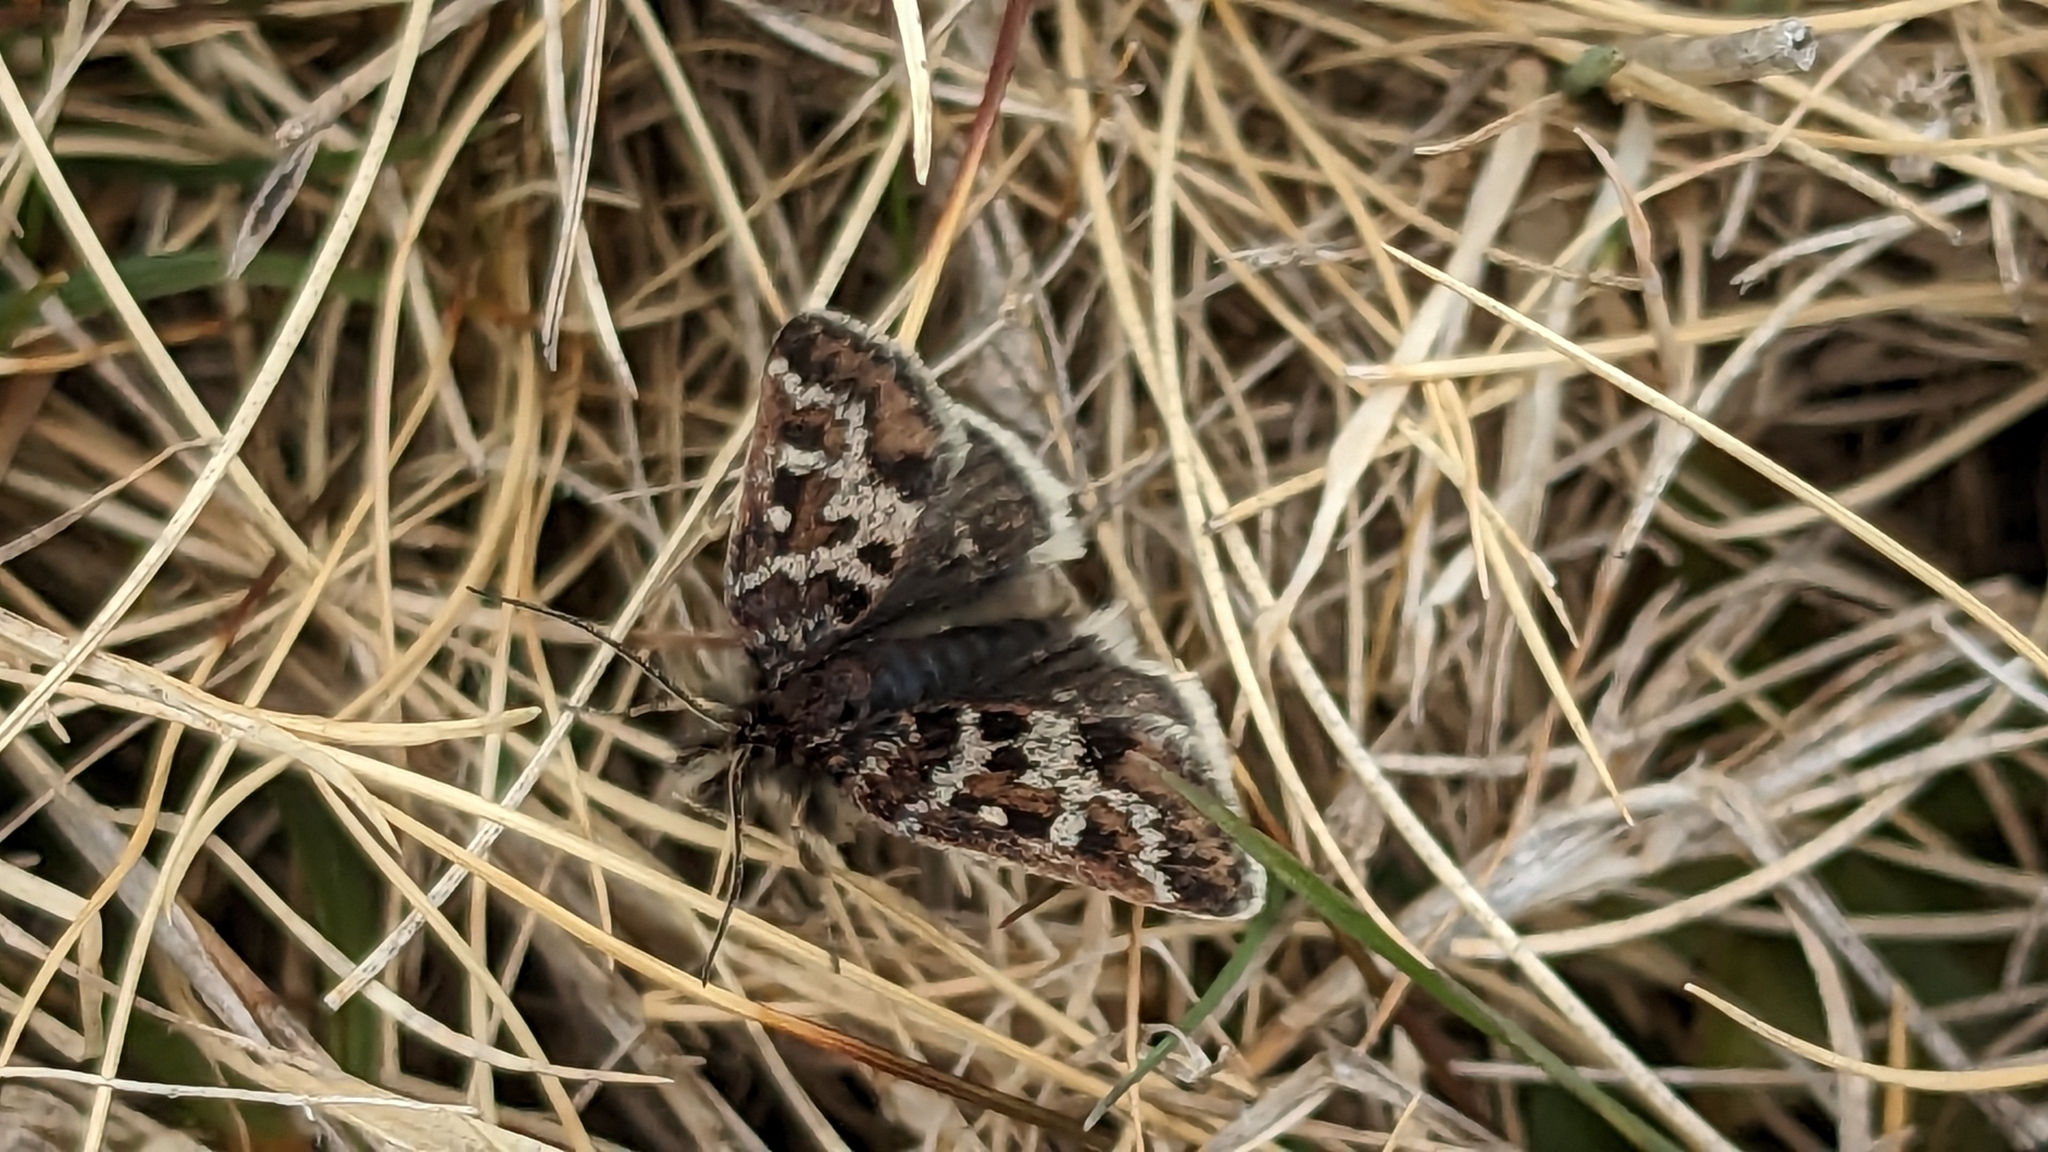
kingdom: Animalia
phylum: Arthropoda
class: Insecta
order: Lepidoptera
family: Crambidae
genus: Metaxmeste
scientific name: Metaxmeste schrankiana
